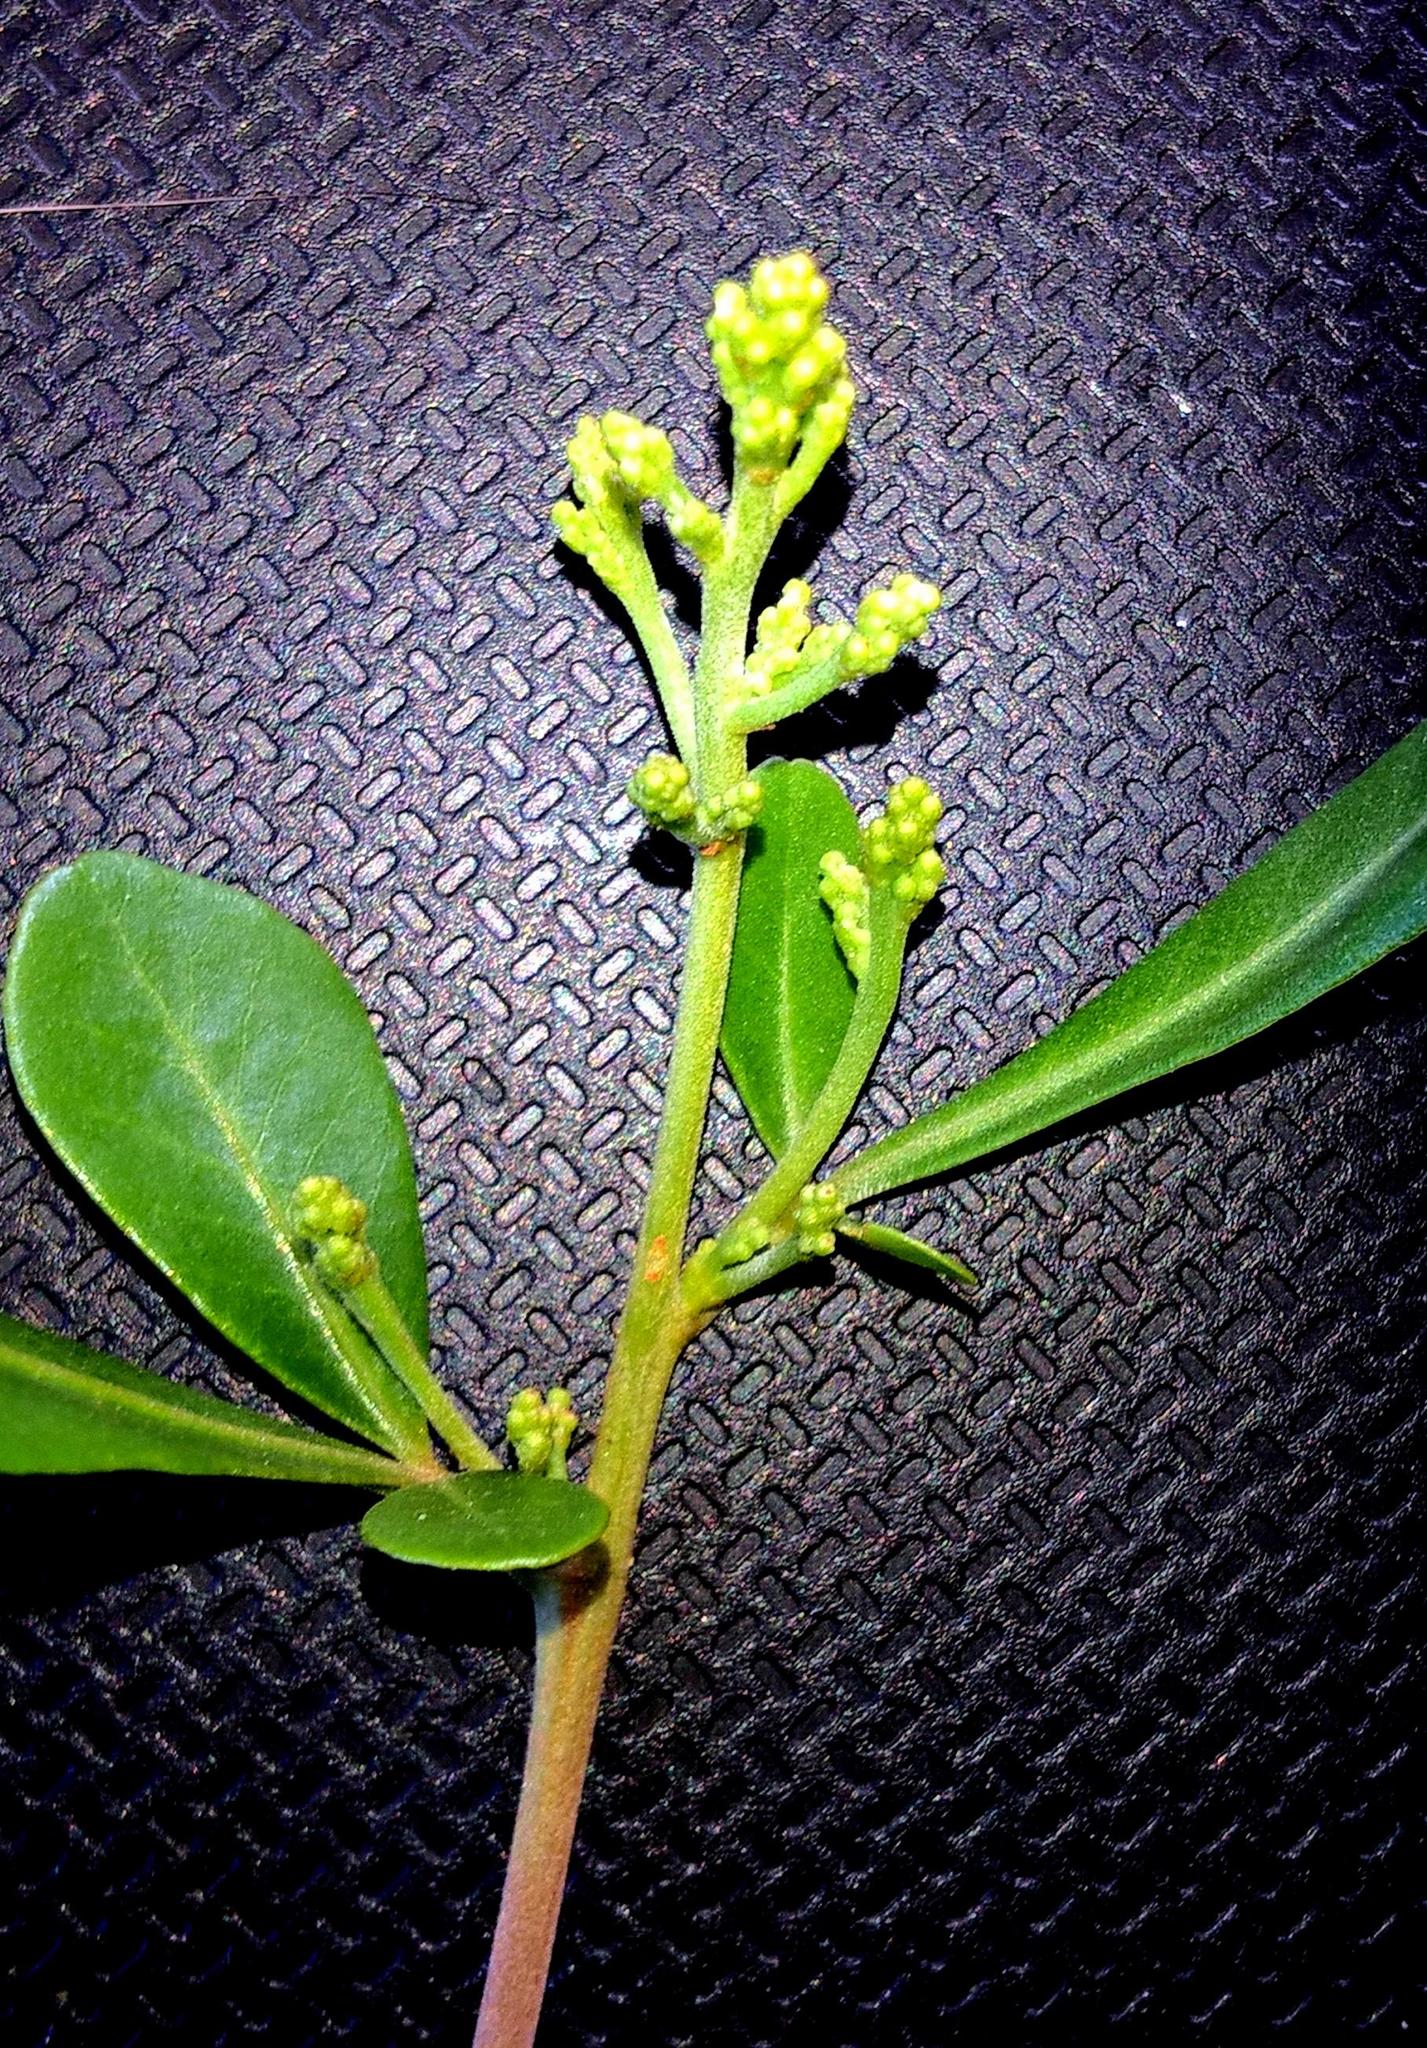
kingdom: Plantae
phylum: Tracheophyta
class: Magnoliopsida
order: Sapindales
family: Anacardiaceae
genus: Searsia
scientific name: Searsia lucida
